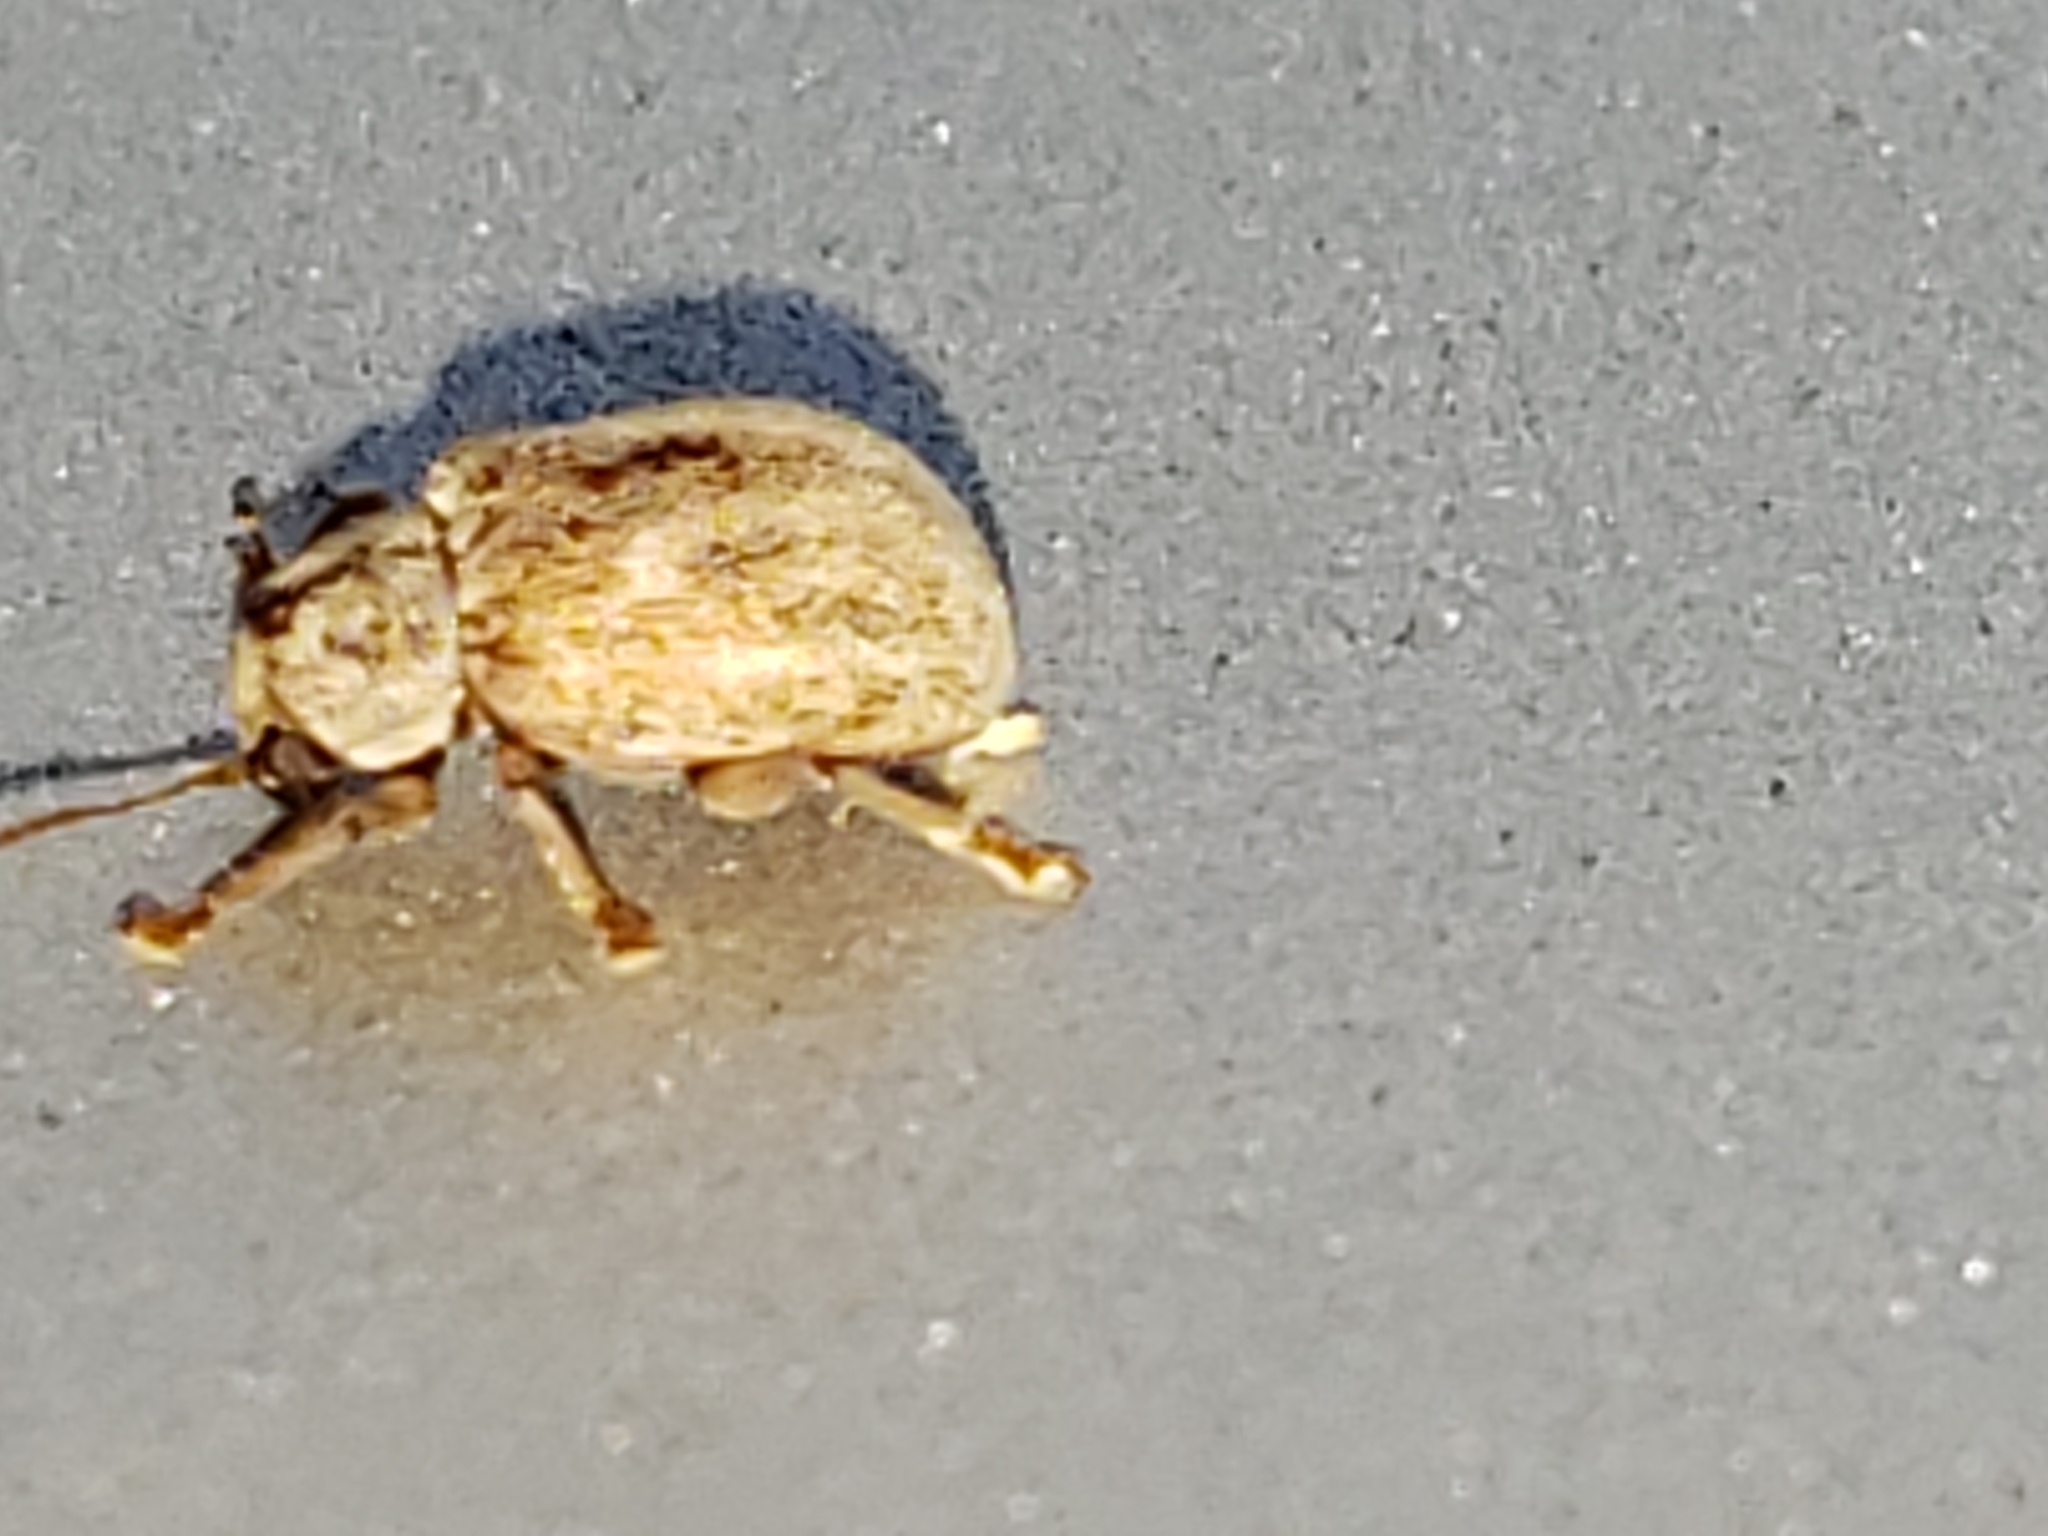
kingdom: Animalia
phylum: Arthropoda
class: Insecta
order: Coleoptera
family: Chrysomelidae
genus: Demotina
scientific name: Demotina modesta
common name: Leaf beetle
